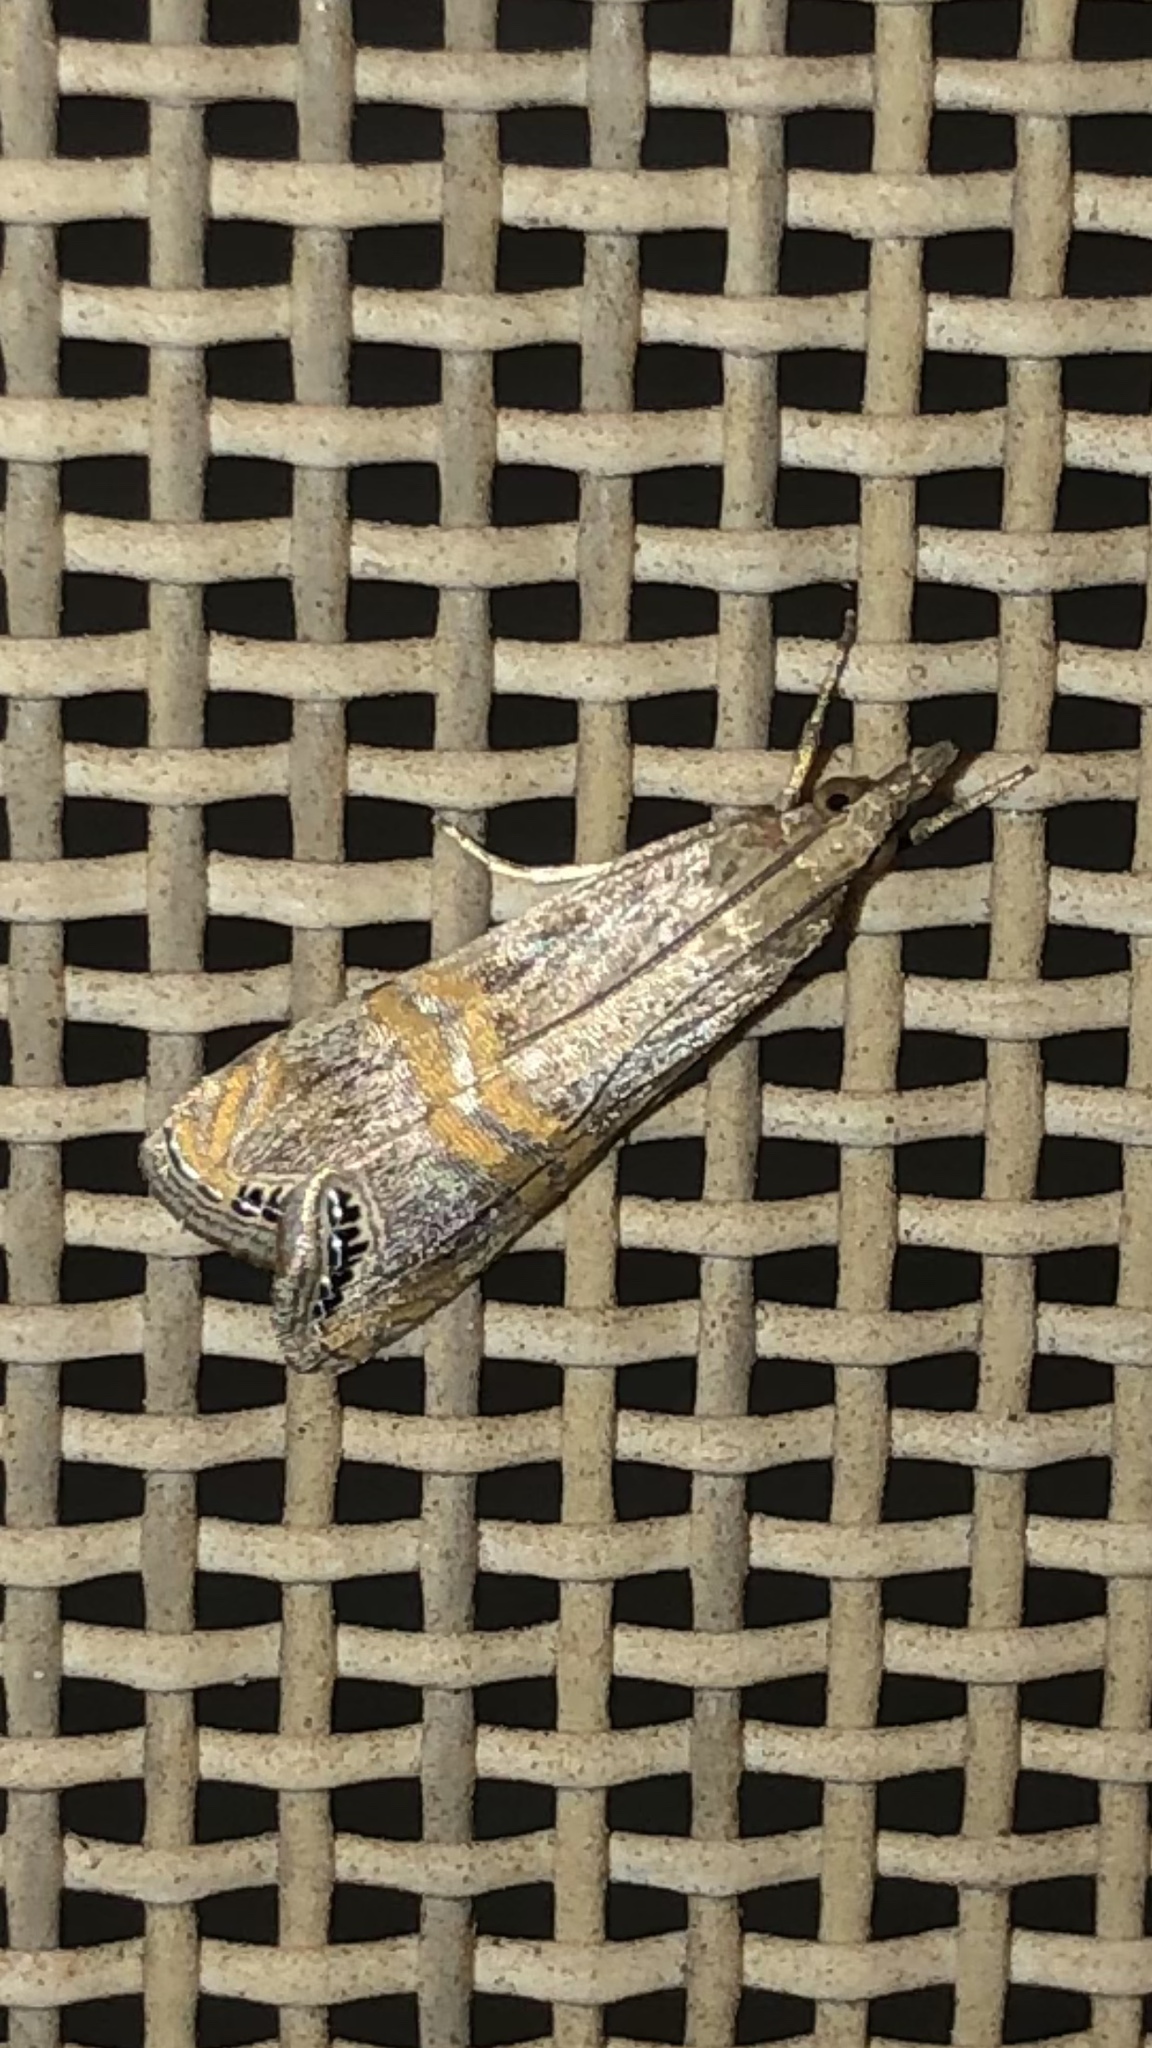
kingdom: Animalia
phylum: Arthropoda
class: Insecta
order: Lepidoptera
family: Crambidae
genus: Euchromius
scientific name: Euchromius ocellea
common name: Necklace veneer moth
